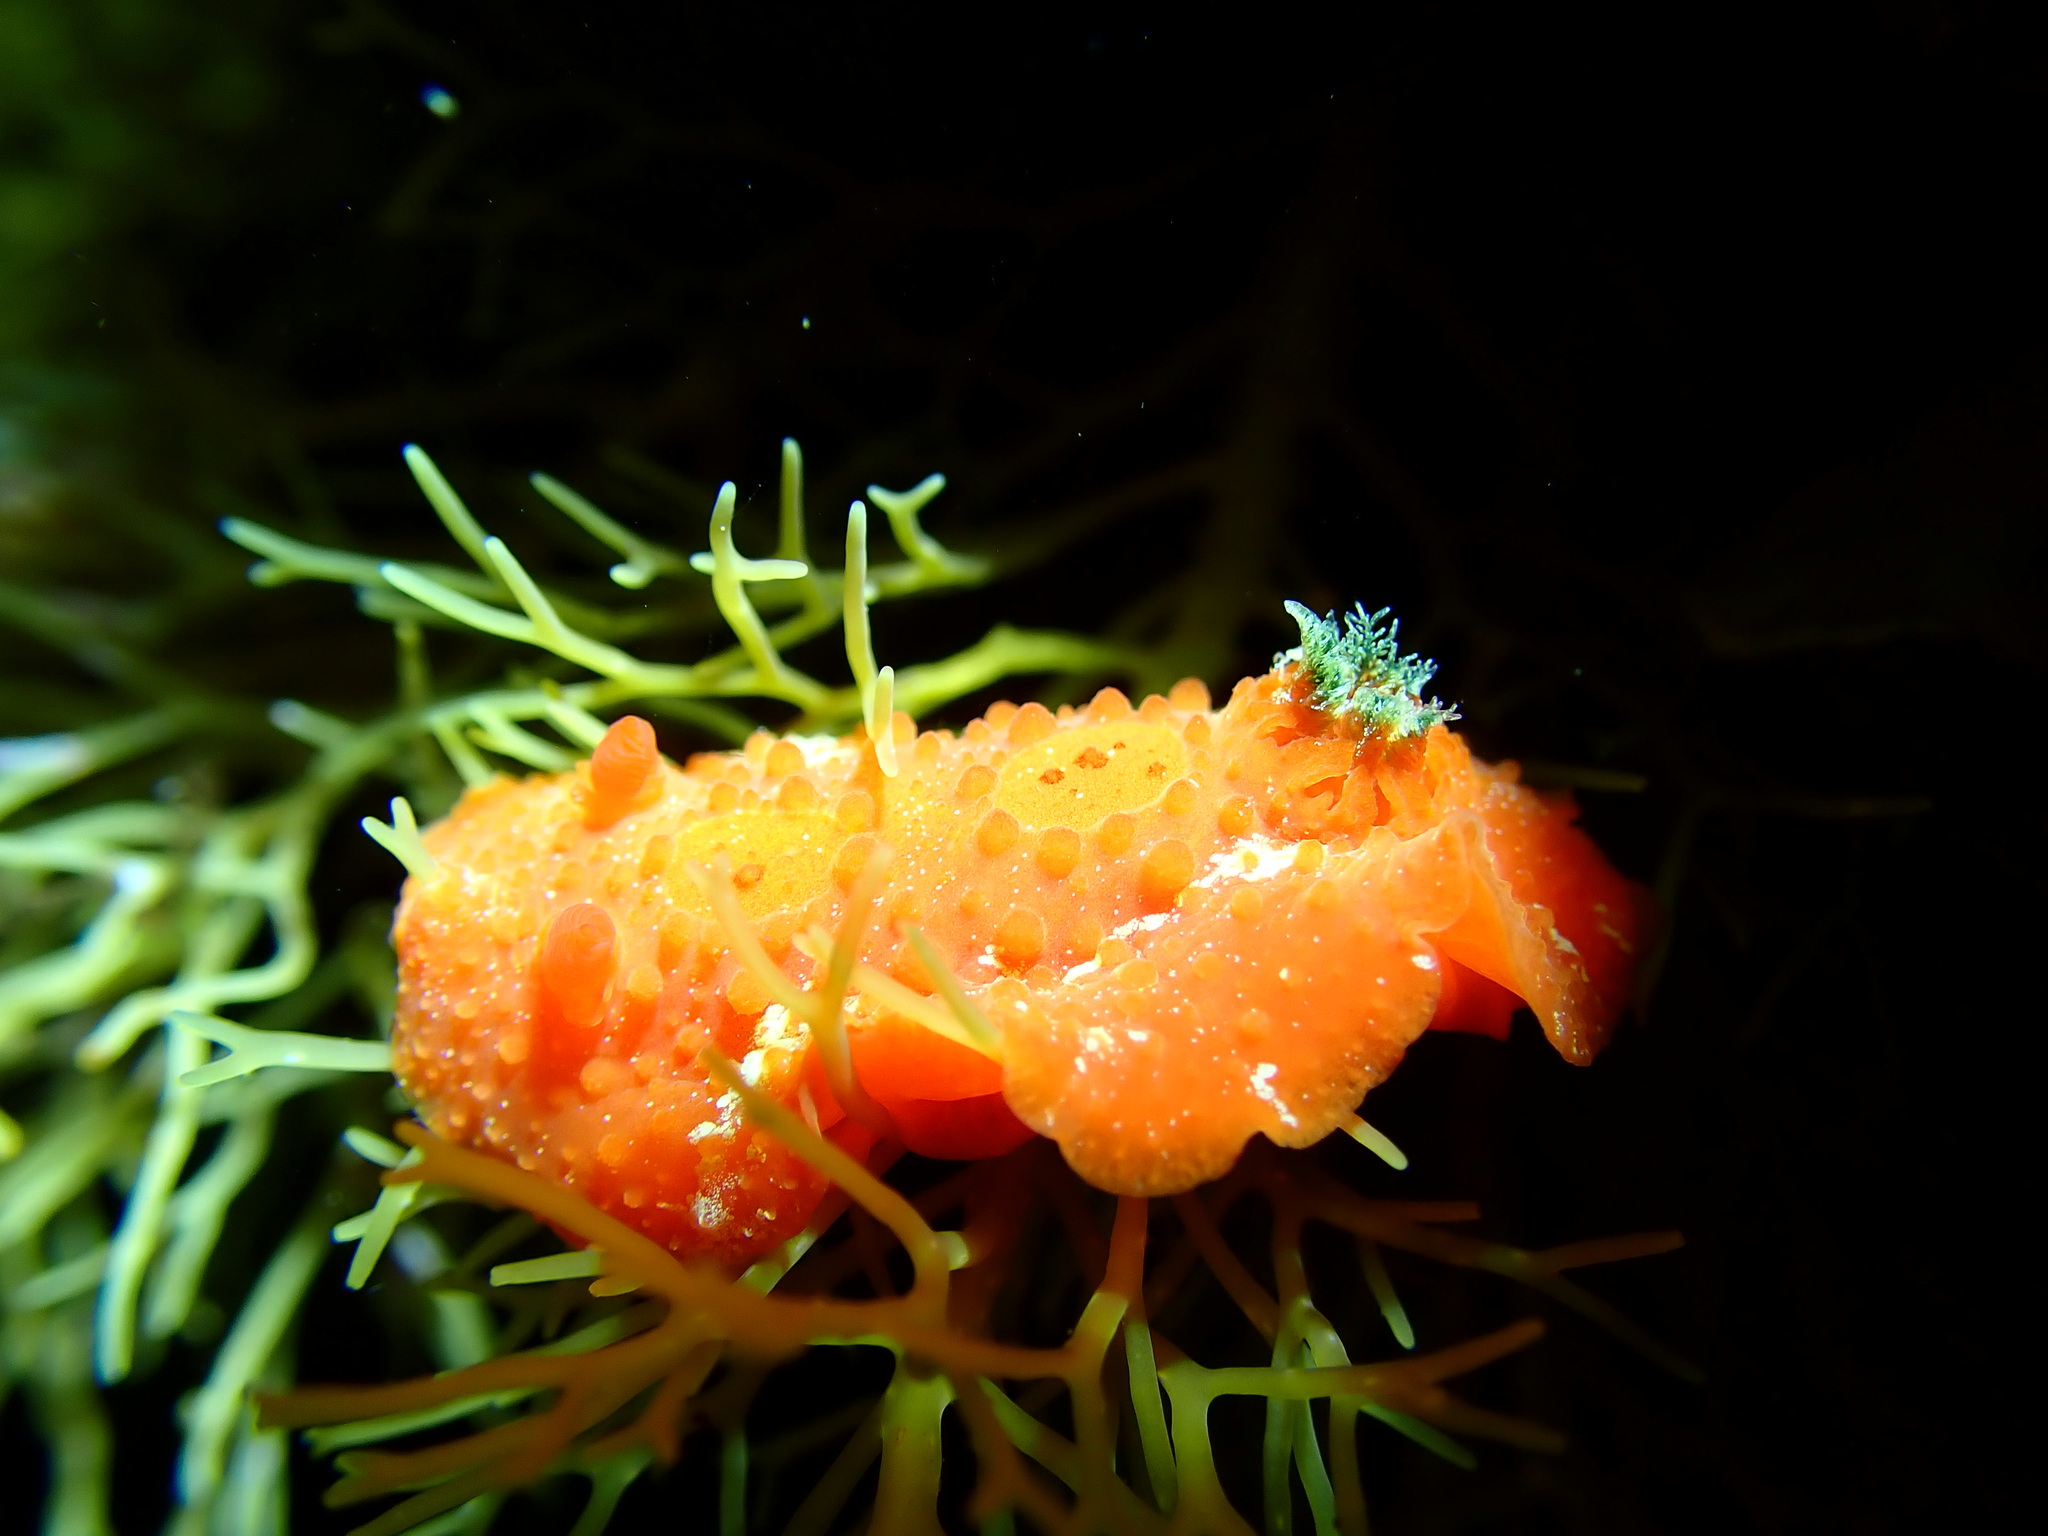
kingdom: Animalia
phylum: Mollusca
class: Gastropoda
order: Nudibranchia
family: Cadlinidae
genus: Aldisa
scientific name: Aldisa smaragdina
